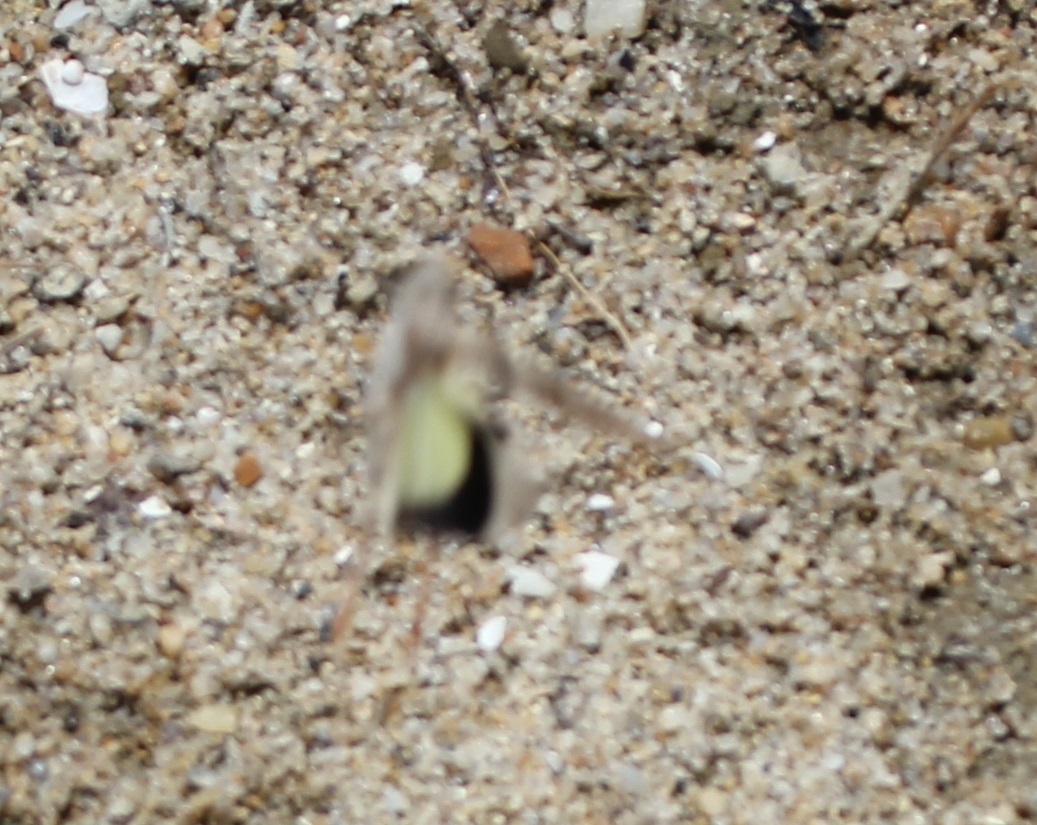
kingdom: Animalia
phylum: Arthropoda
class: Insecta
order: Orthoptera
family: Acrididae
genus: Trimerotropis
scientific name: Trimerotropis maritima
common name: Seaside locust
